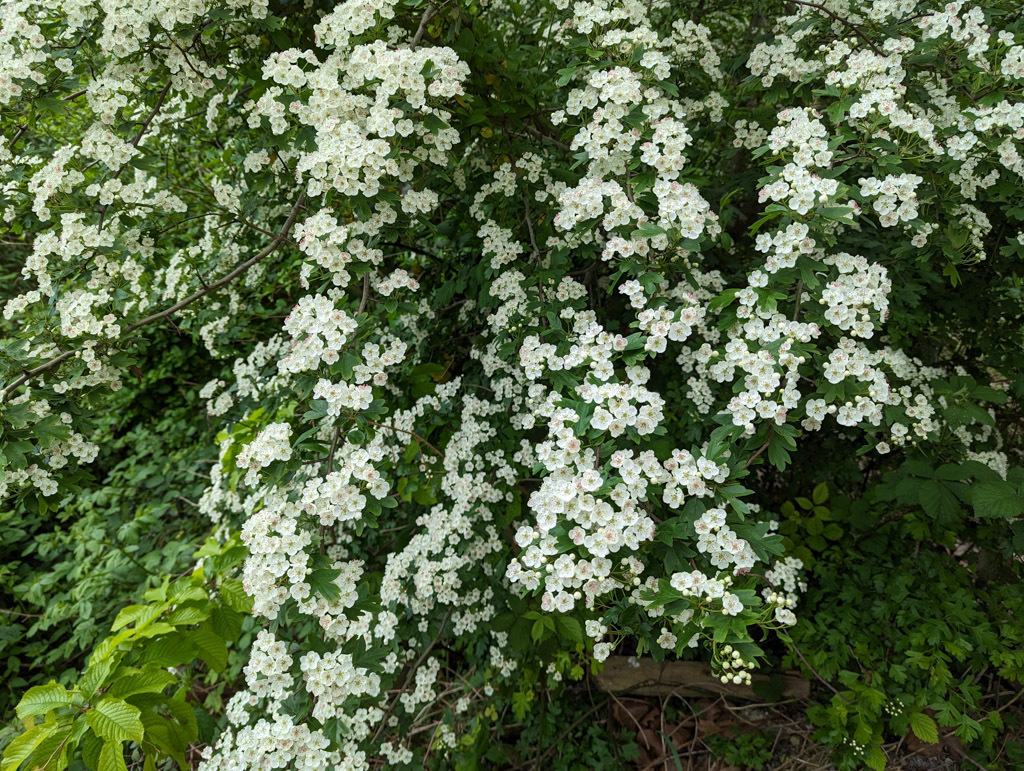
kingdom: Plantae
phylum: Tracheophyta
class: Magnoliopsida
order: Rosales
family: Rosaceae
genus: Crataegus
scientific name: Crataegus monogyna
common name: Hawthorn
